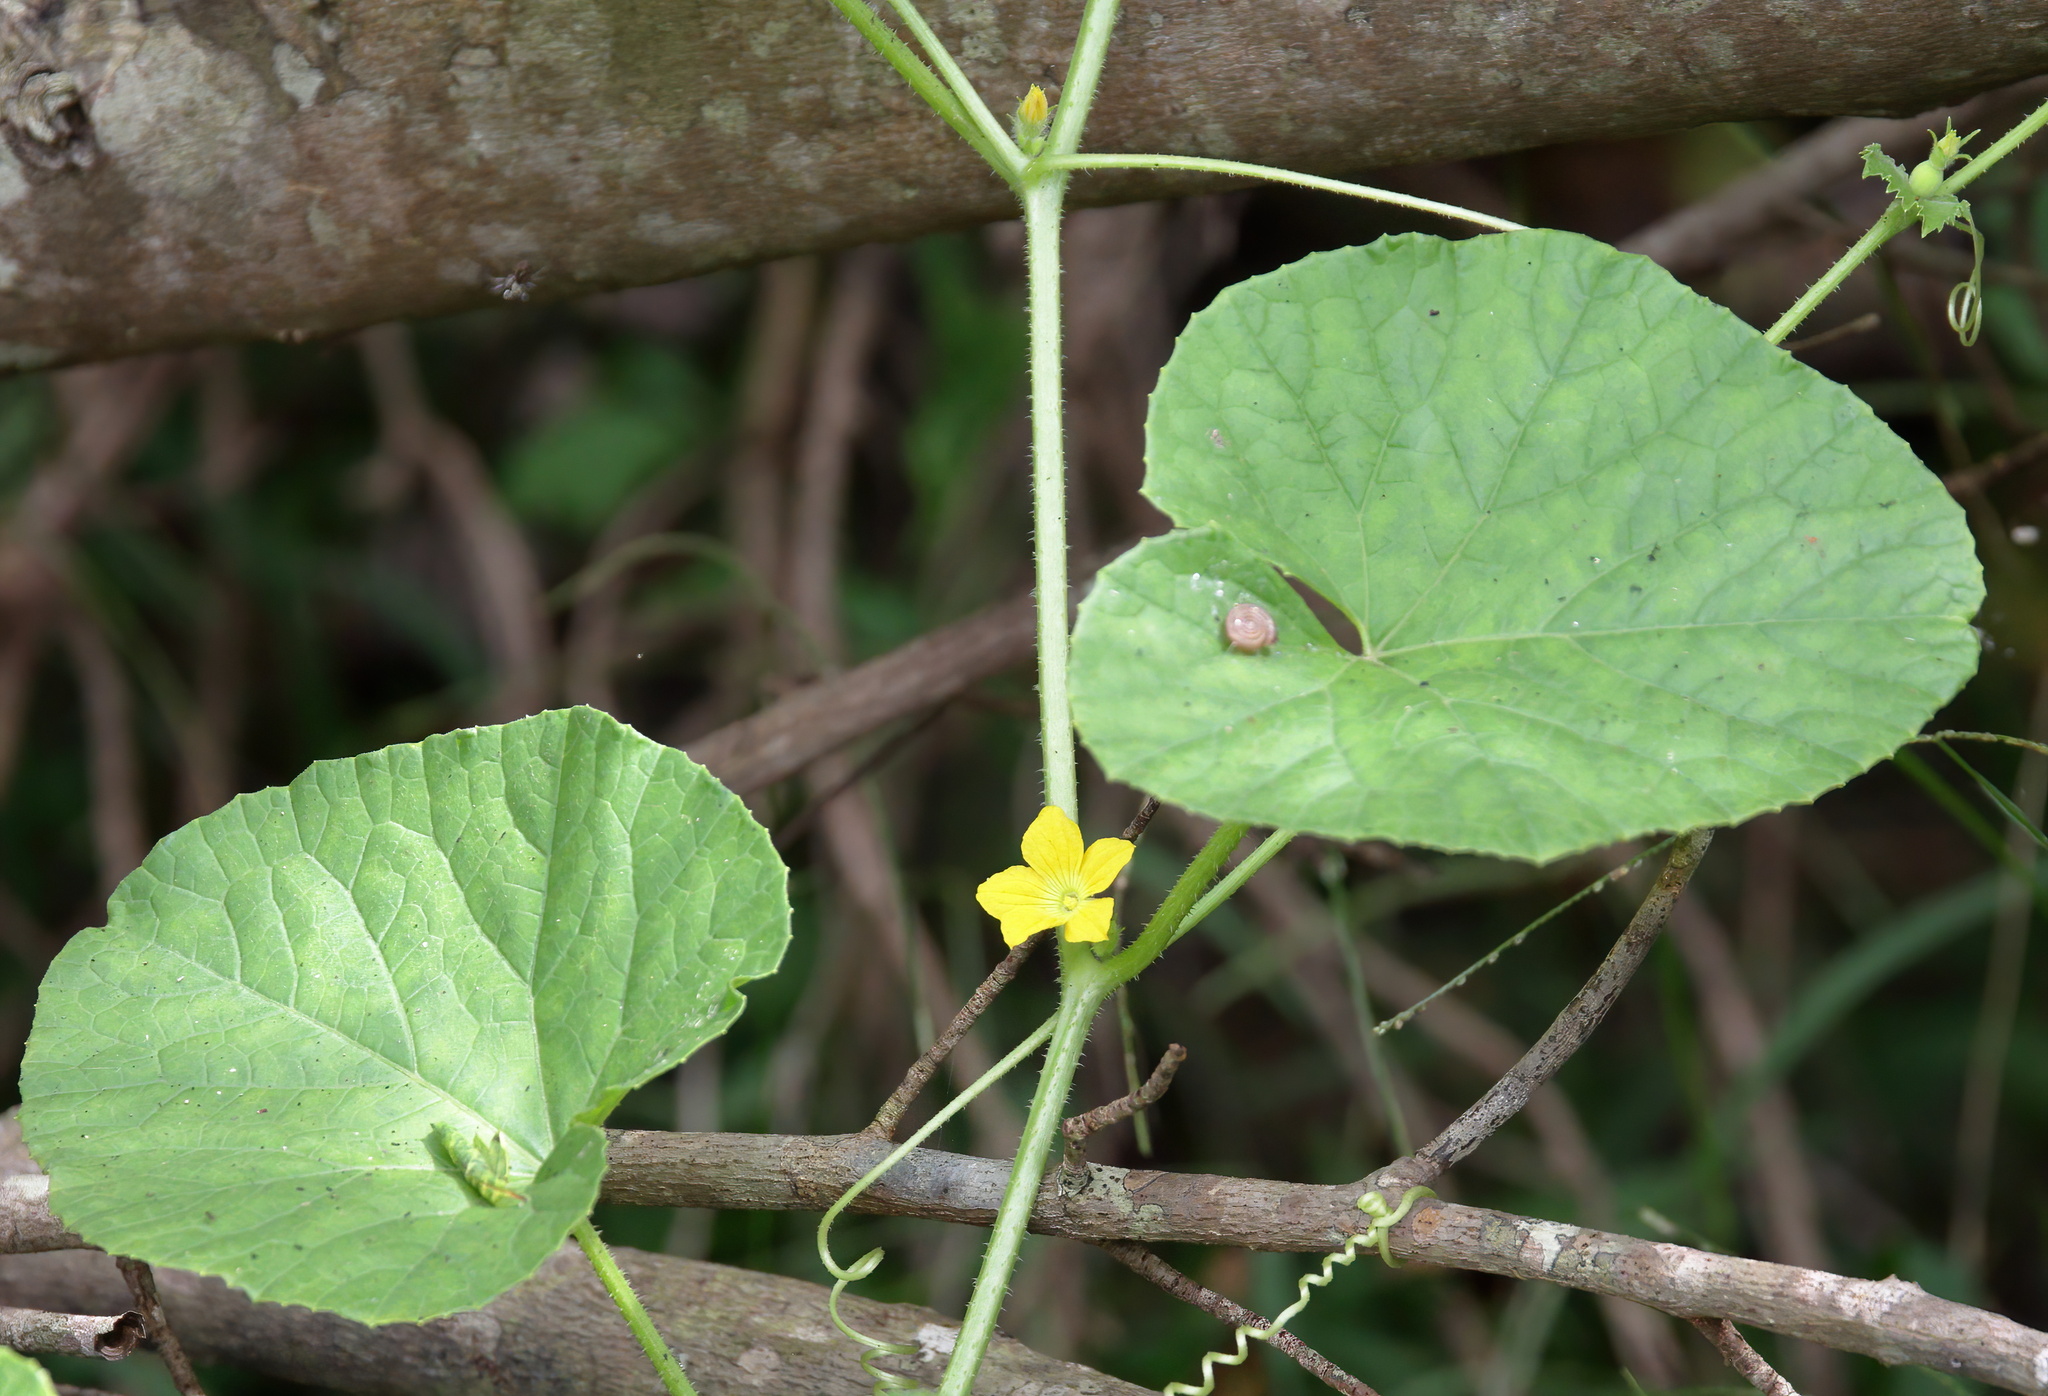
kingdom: Plantae
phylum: Tracheophyta
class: Magnoliopsida
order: Cucurbitales
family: Cucurbitaceae
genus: Cucumis
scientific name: Cucumis melo
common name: Melon
